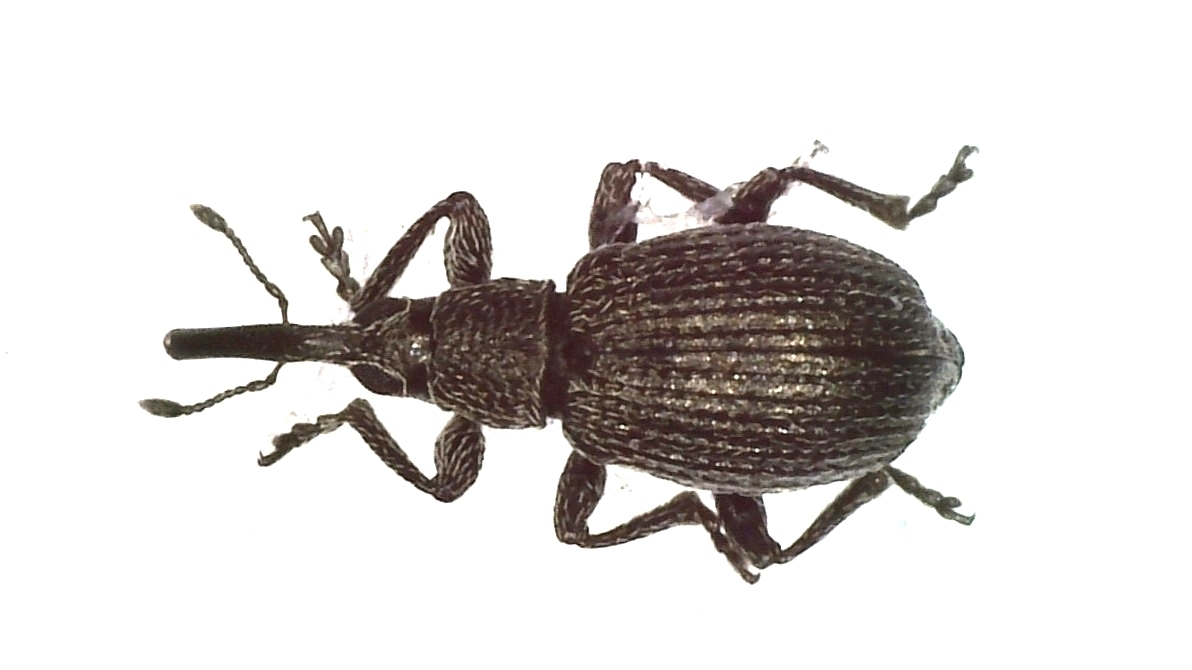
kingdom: Animalia
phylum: Arthropoda
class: Insecta
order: Coleoptera
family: Brentidae
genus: Betulapion
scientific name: Betulapion simile
